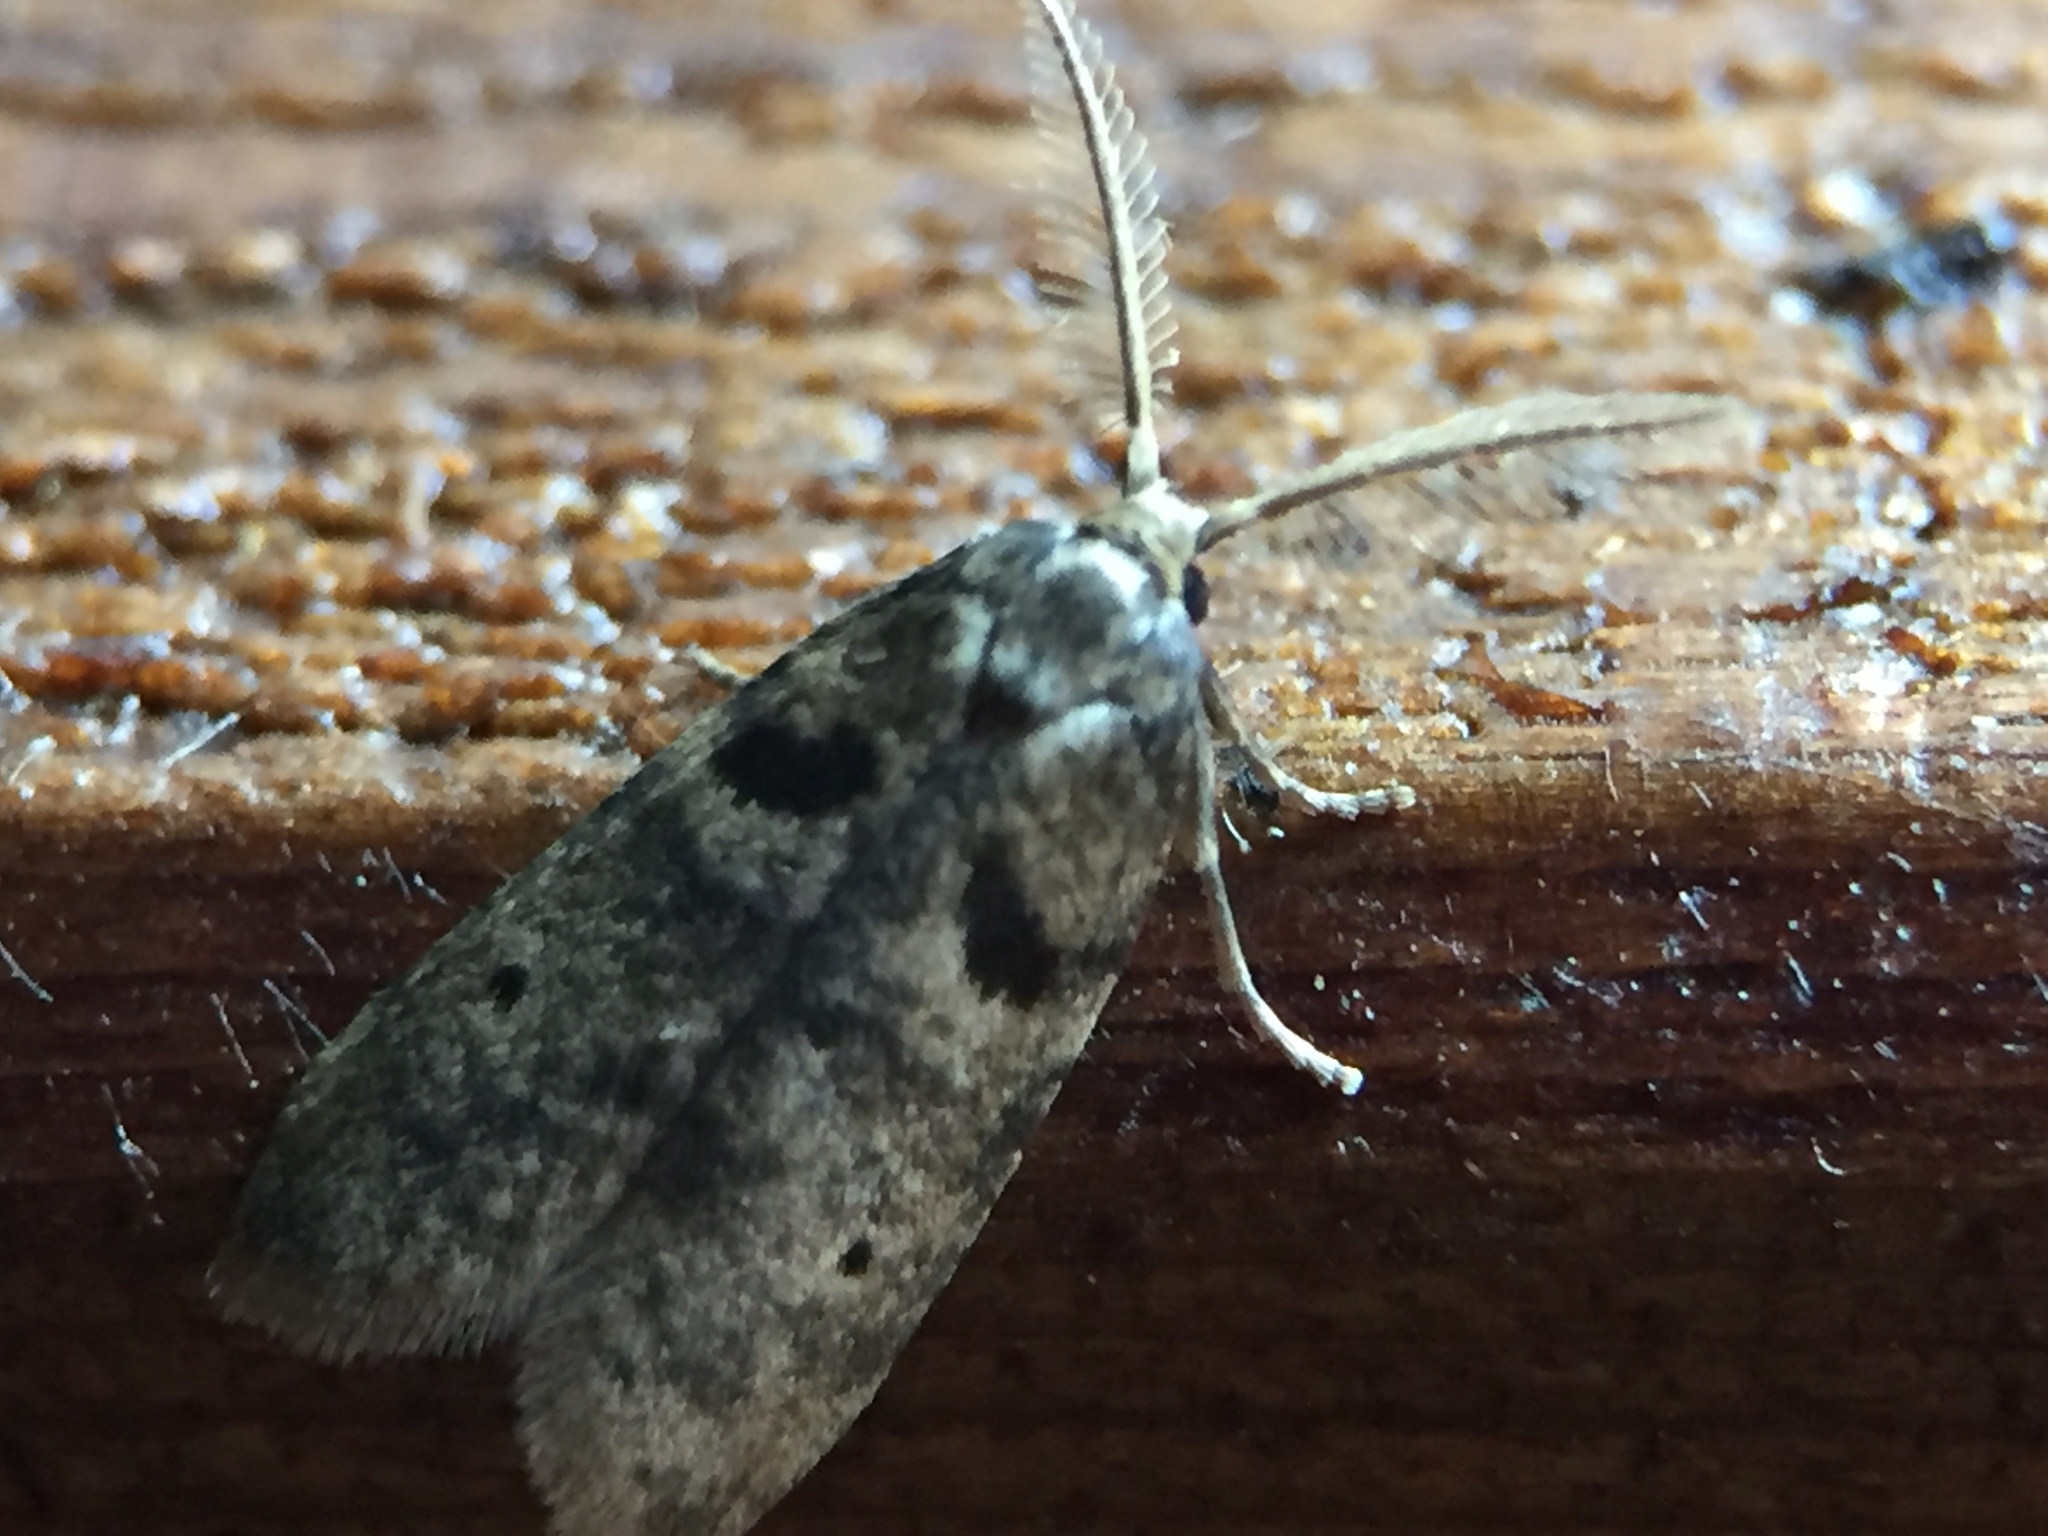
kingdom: Animalia
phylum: Arthropoda
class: Insecta
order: Lepidoptera
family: Galacticidae
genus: Tanaoctena
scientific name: Tanaoctena dubia
